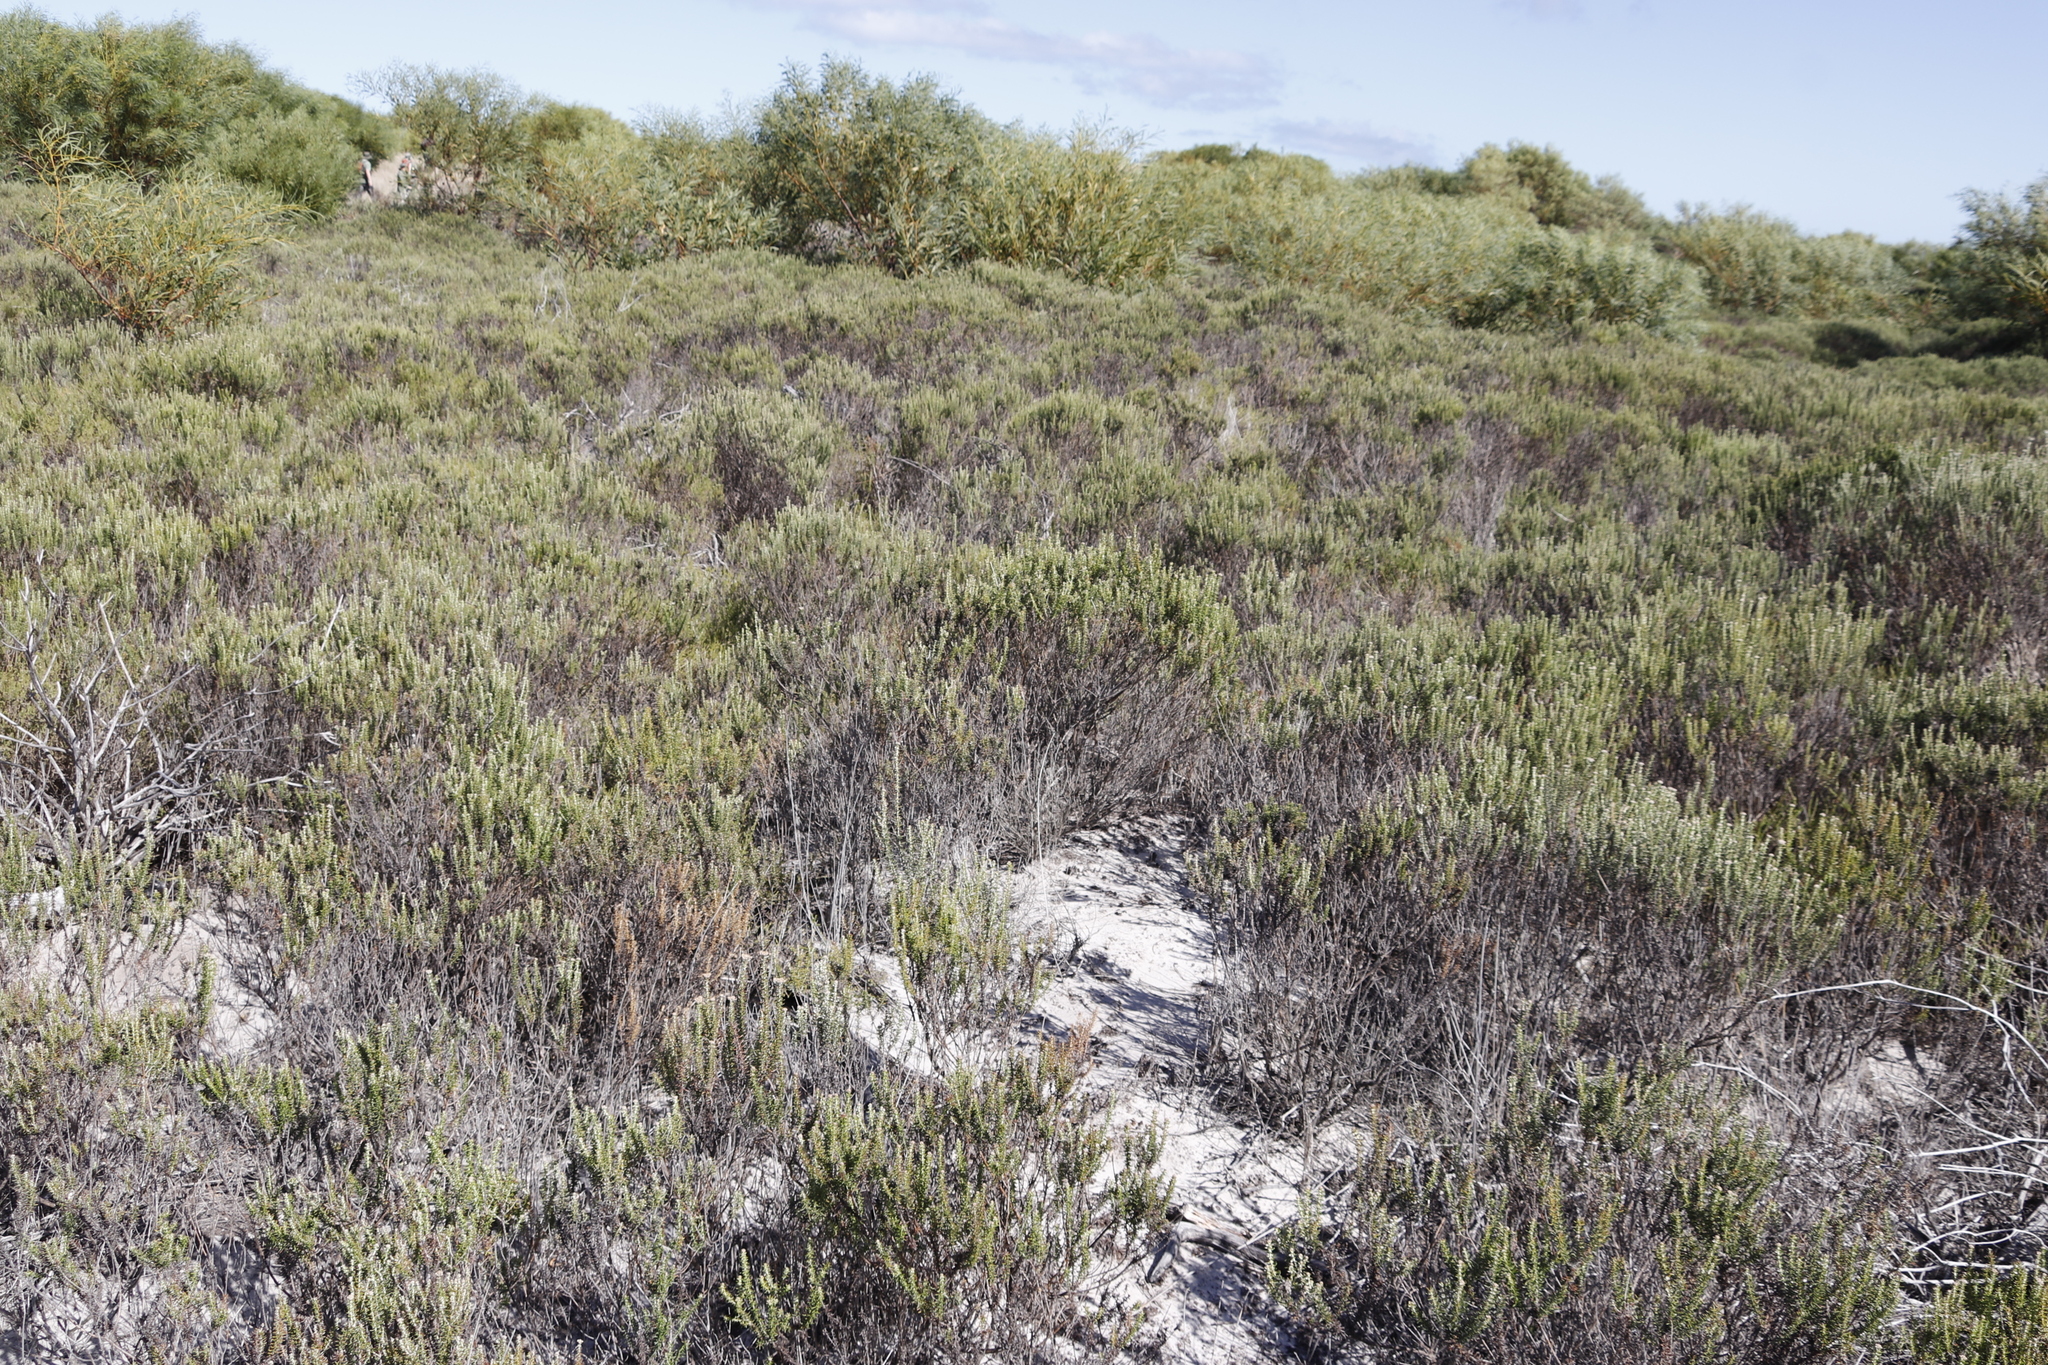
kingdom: Plantae
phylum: Tracheophyta
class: Magnoliopsida
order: Asterales
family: Asteraceae
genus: Metalasia
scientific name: Metalasia muricata
